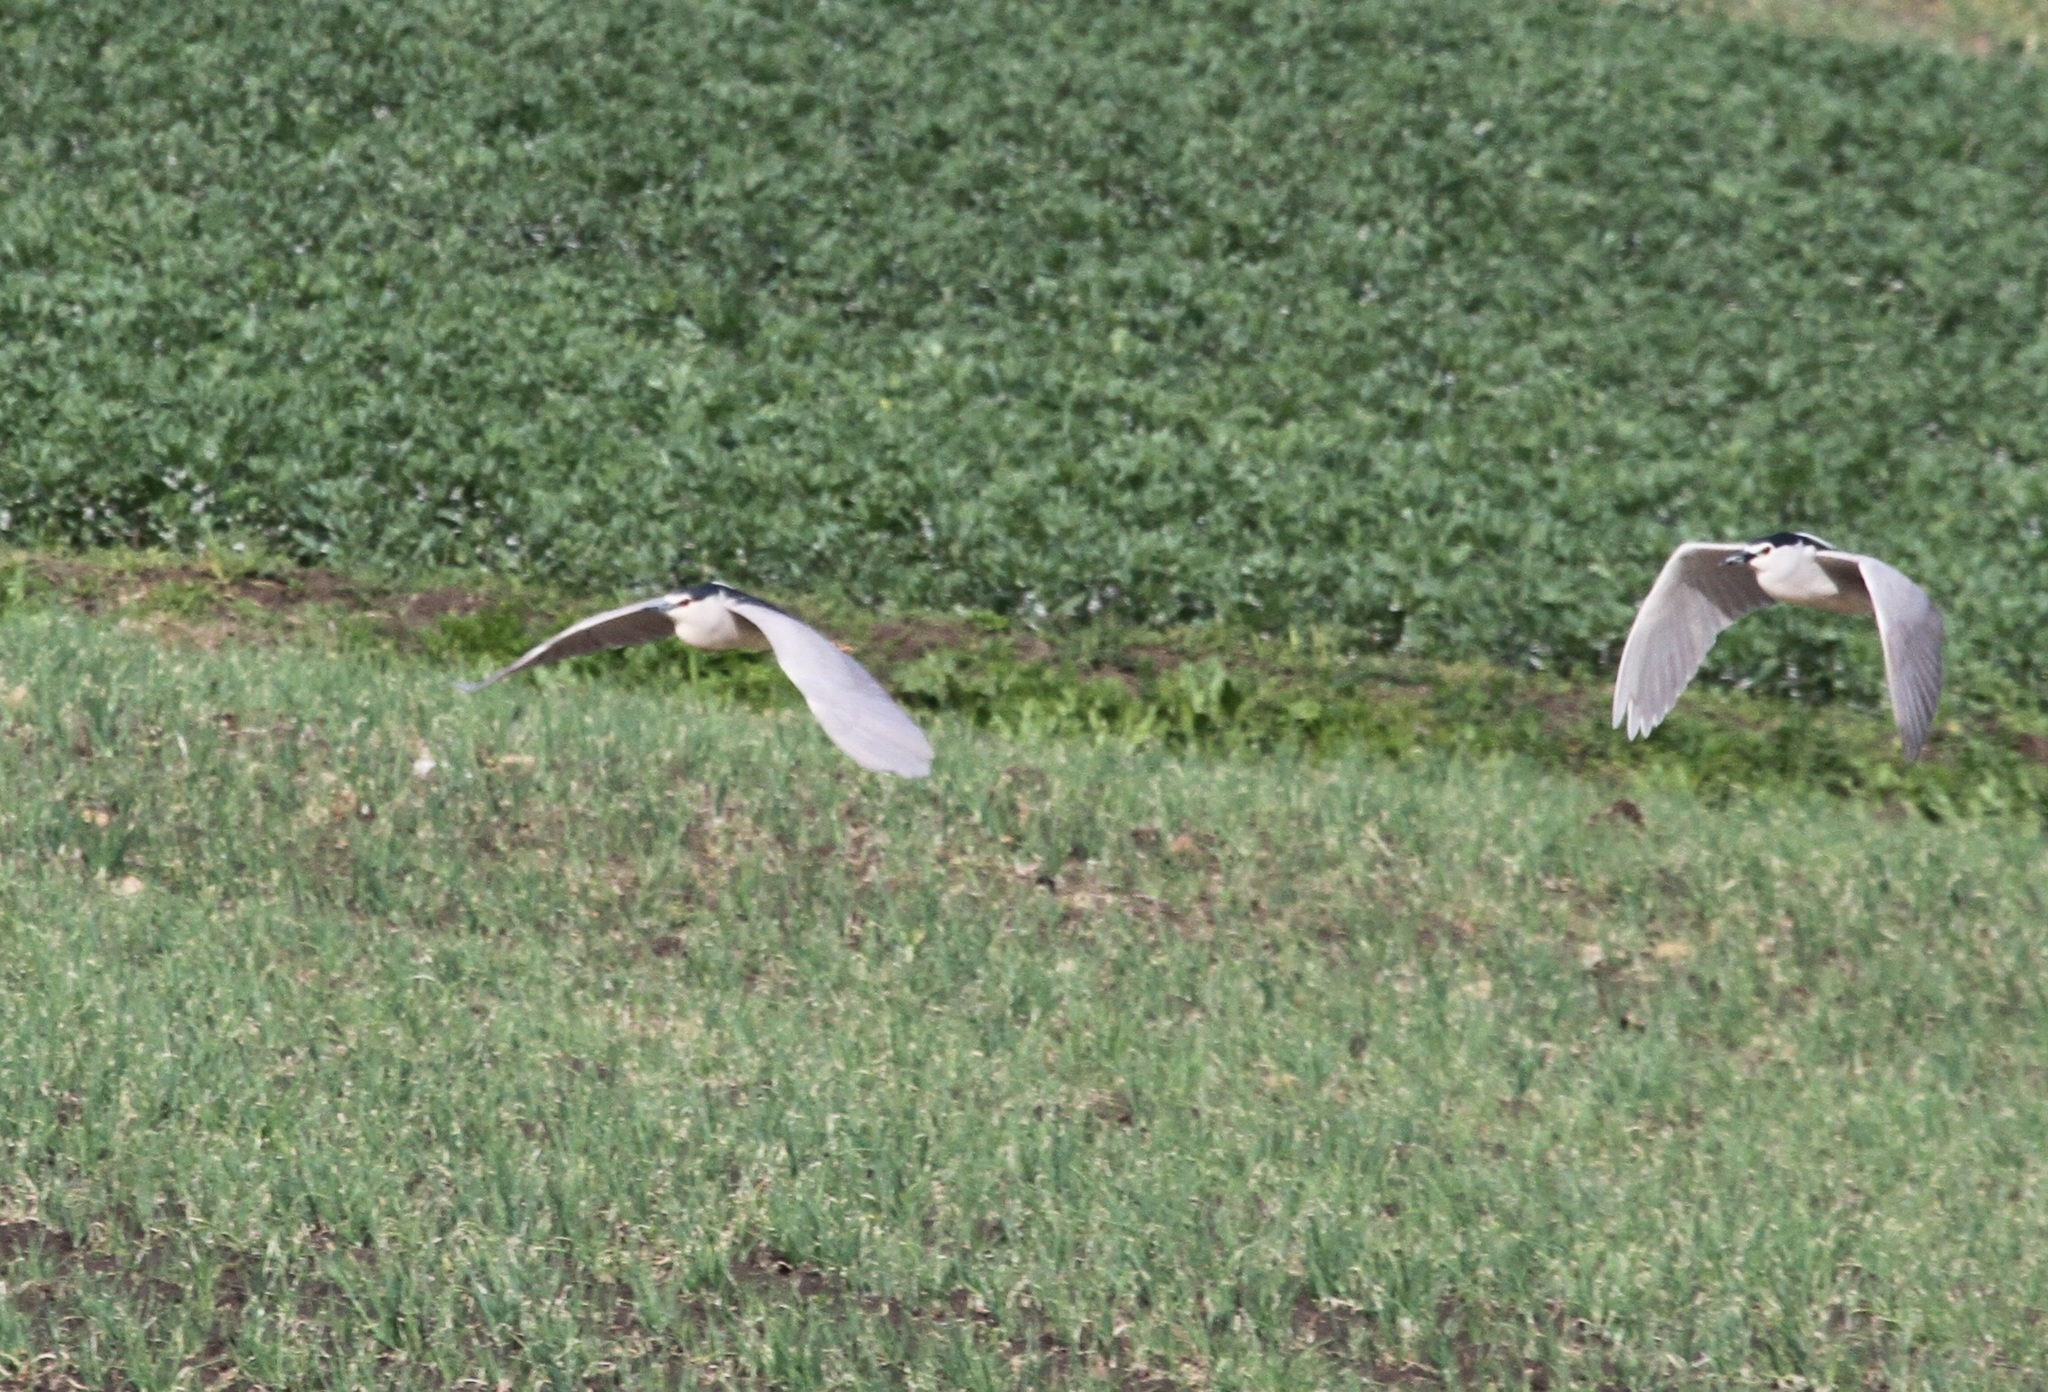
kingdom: Animalia
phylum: Chordata
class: Aves
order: Pelecaniformes
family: Ardeidae
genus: Nycticorax
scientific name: Nycticorax nycticorax
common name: Black-crowned night heron
